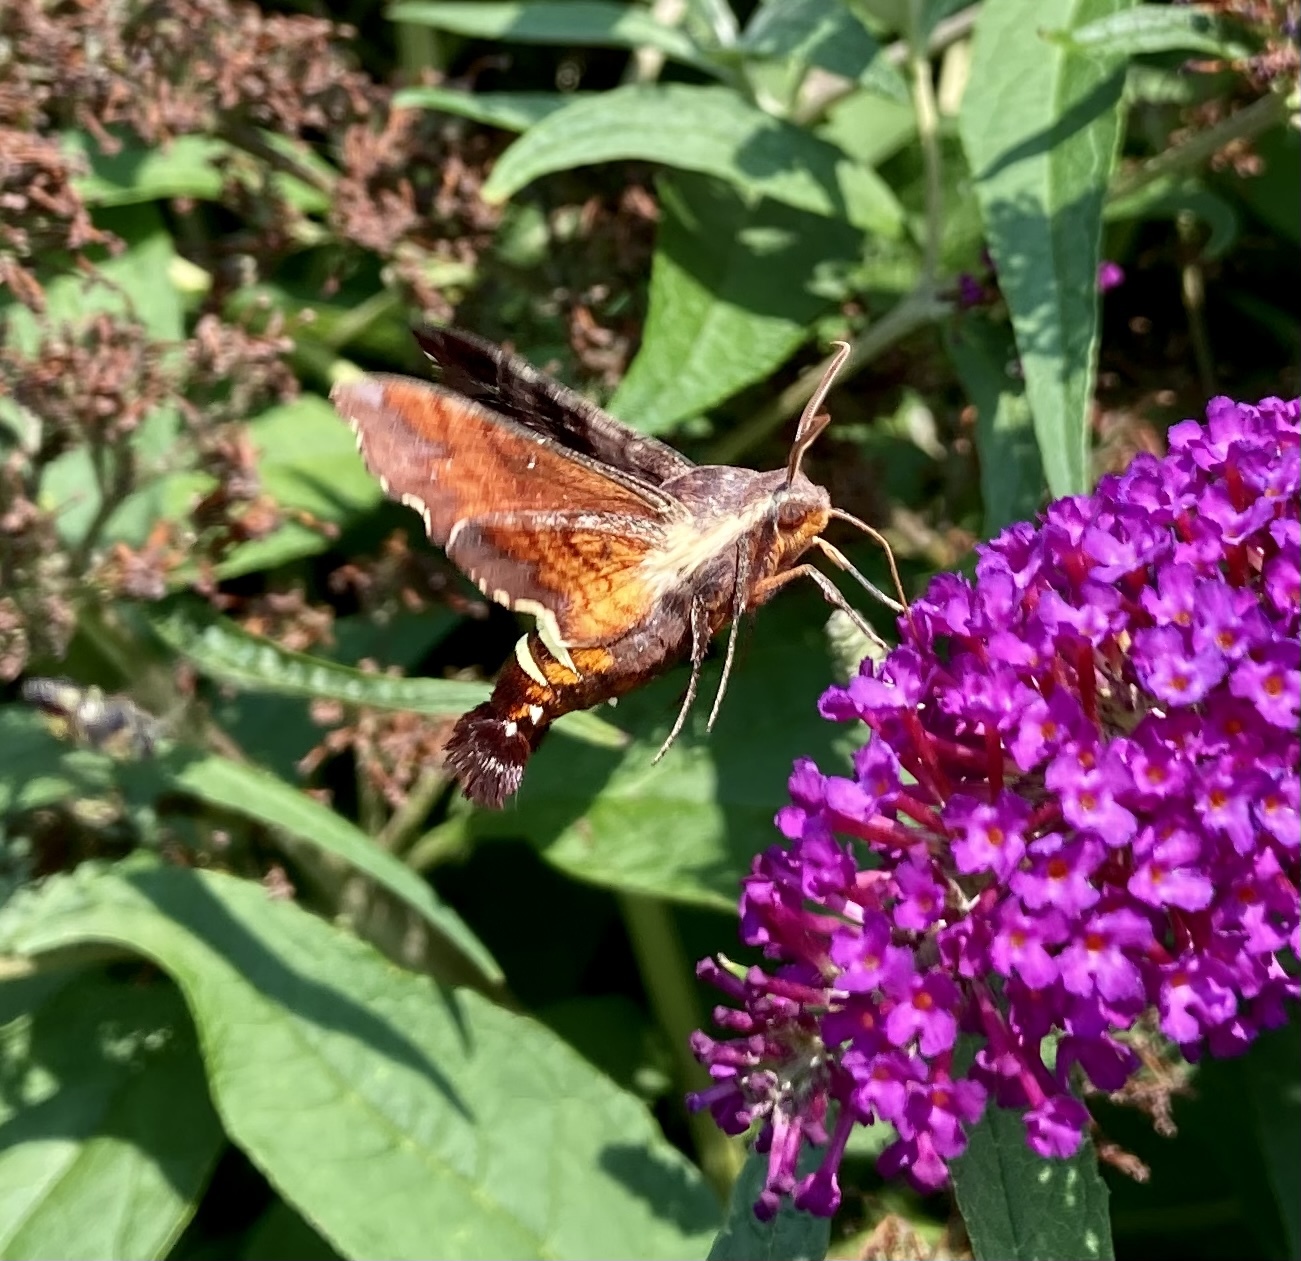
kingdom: Animalia
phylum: Arthropoda
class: Insecta
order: Lepidoptera
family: Sphingidae
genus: Amphion
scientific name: Amphion floridensis
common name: Nessus sphinx
